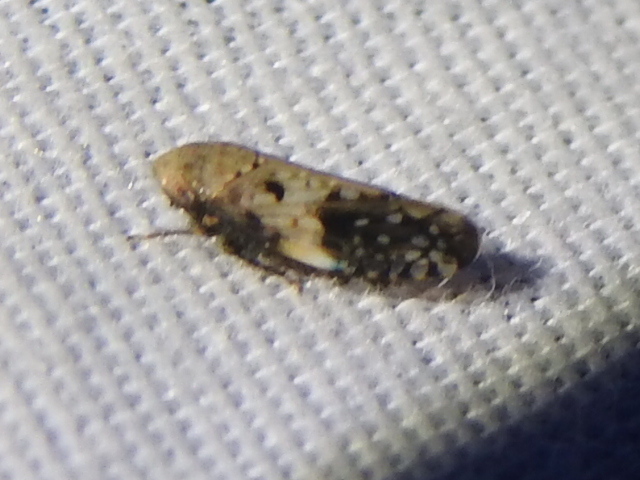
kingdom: Animalia
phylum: Arthropoda
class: Insecta
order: Hemiptera
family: Cicadellidae
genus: Menosoma
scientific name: Menosoma cinctum
